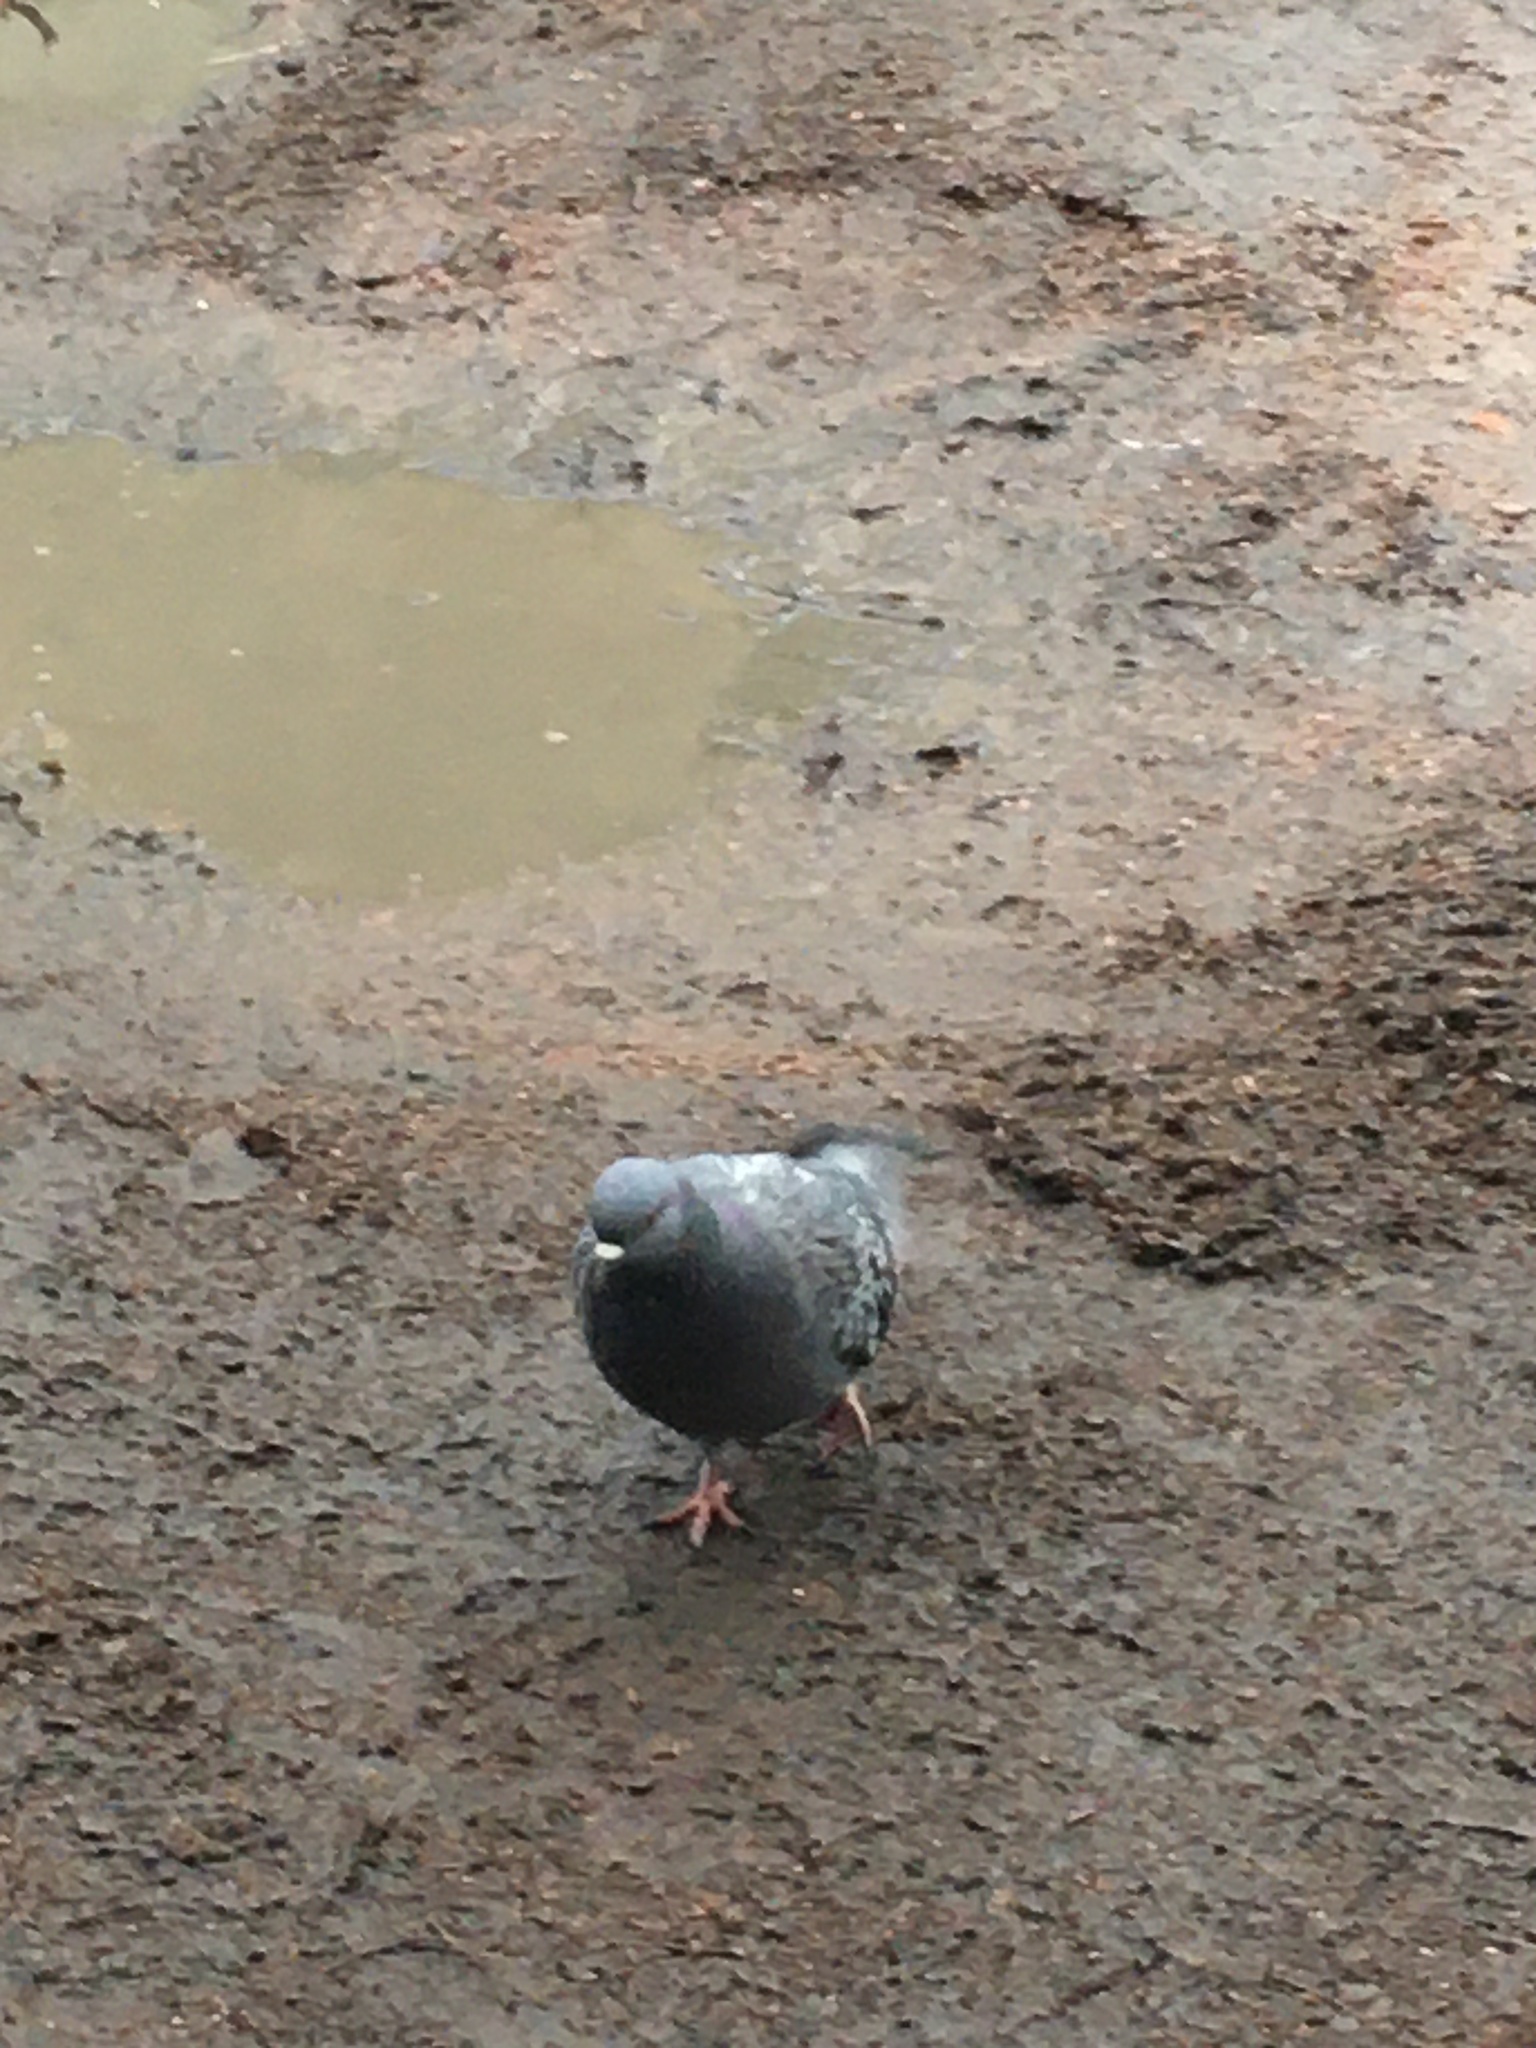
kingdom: Animalia
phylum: Chordata
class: Aves
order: Columbiformes
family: Columbidae
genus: Columba
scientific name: Columba livia
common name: Rock pigeon
